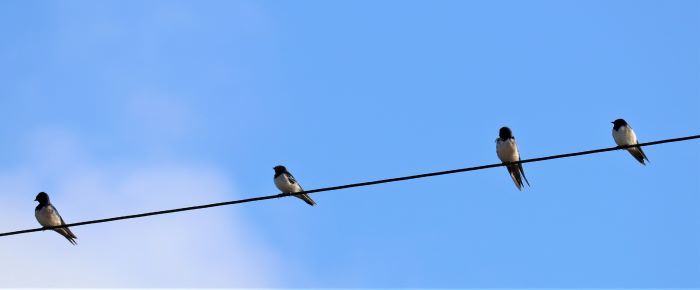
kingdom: Animalia
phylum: Chordata
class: Aves
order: Passeriformes
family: Hirundinidae
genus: Hirundo
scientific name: Hirundo rustica
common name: Barn swallow
